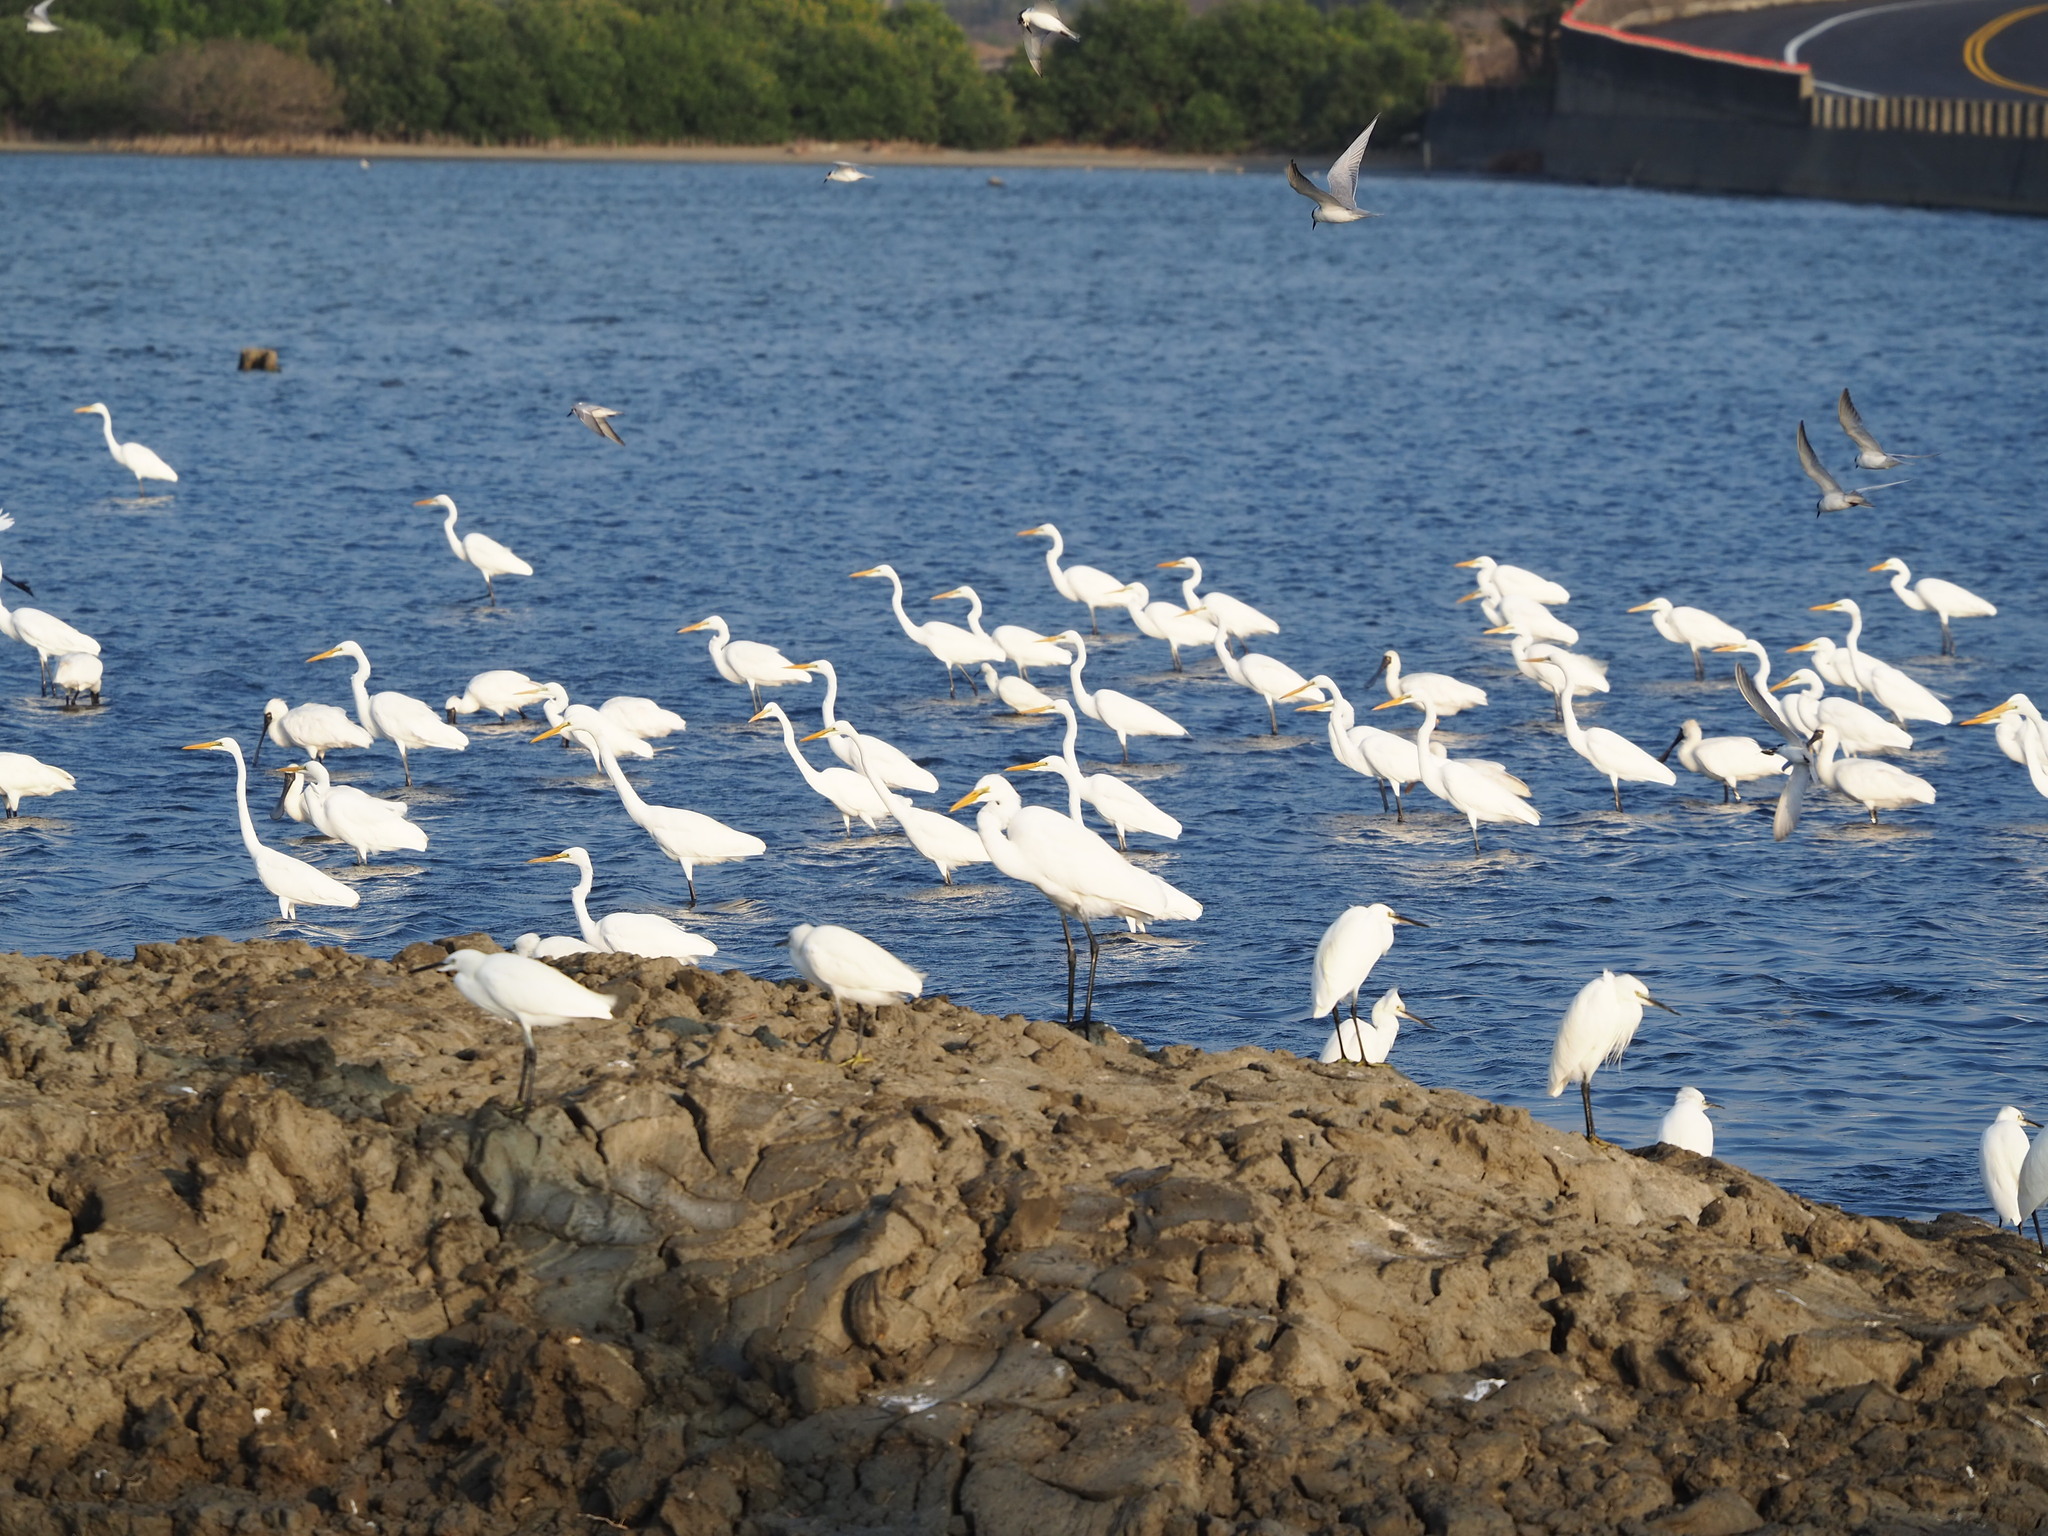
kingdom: Animalia
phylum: Chordata
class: Aves
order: Pelecaniformes
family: Ardeidae
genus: Ardea
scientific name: Ardea modesta
